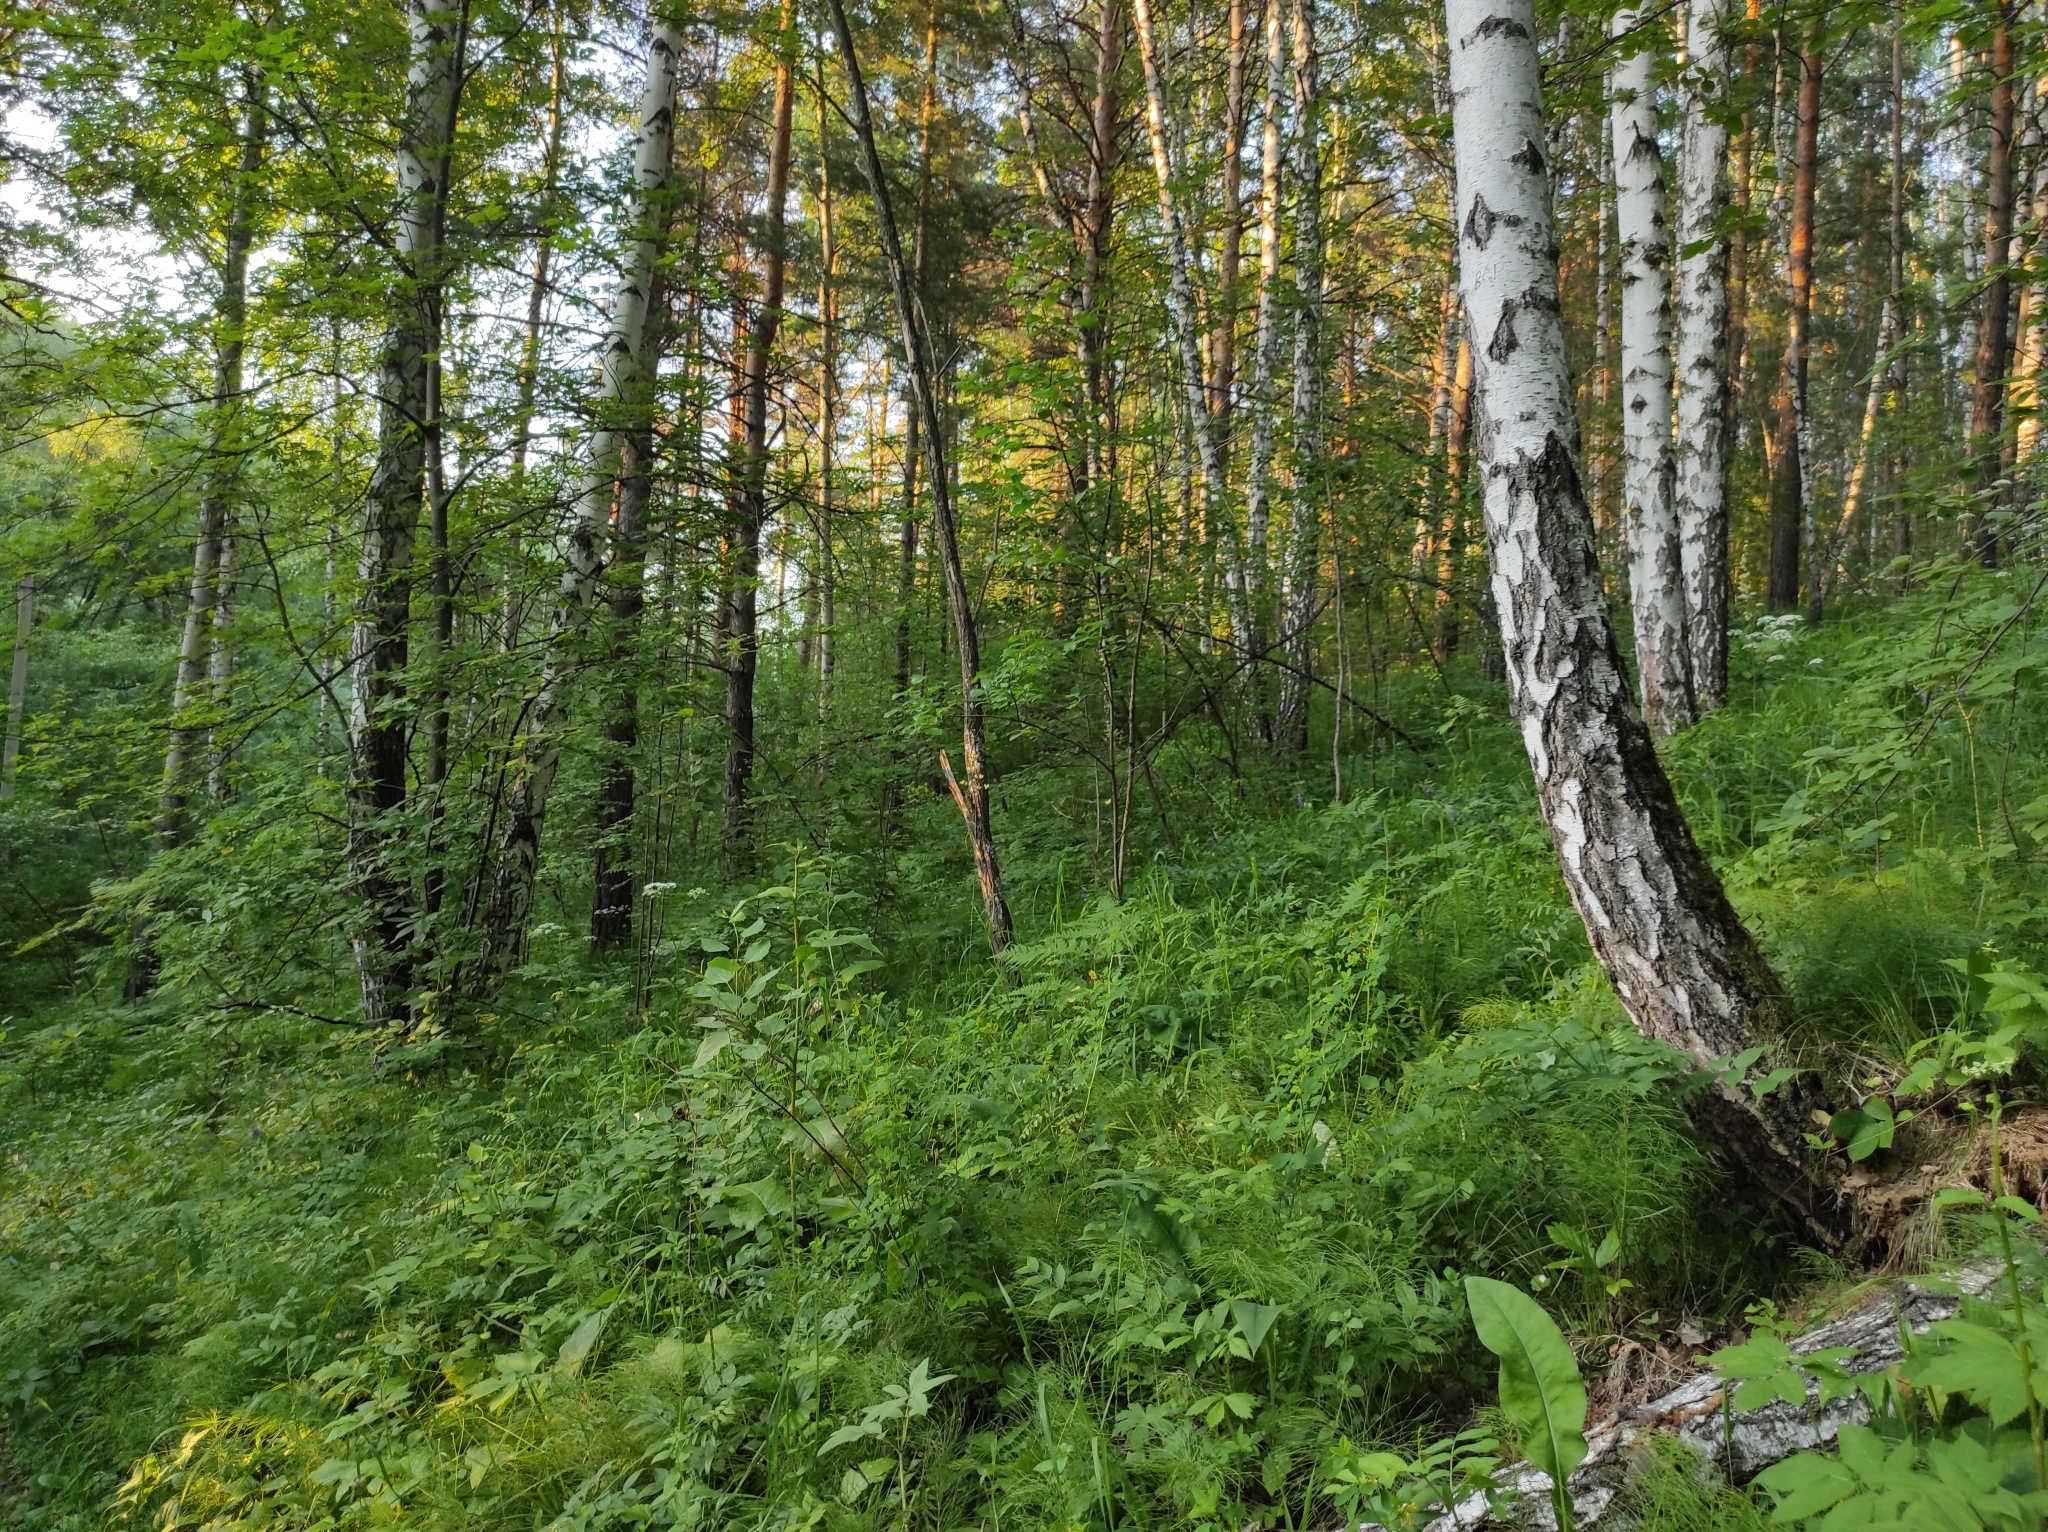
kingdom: Plantae
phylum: Tracheophyta
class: Magnoliopsida
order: Fagales
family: Betulaceae
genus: Betula
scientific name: Betula pendula
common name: Silver birch
